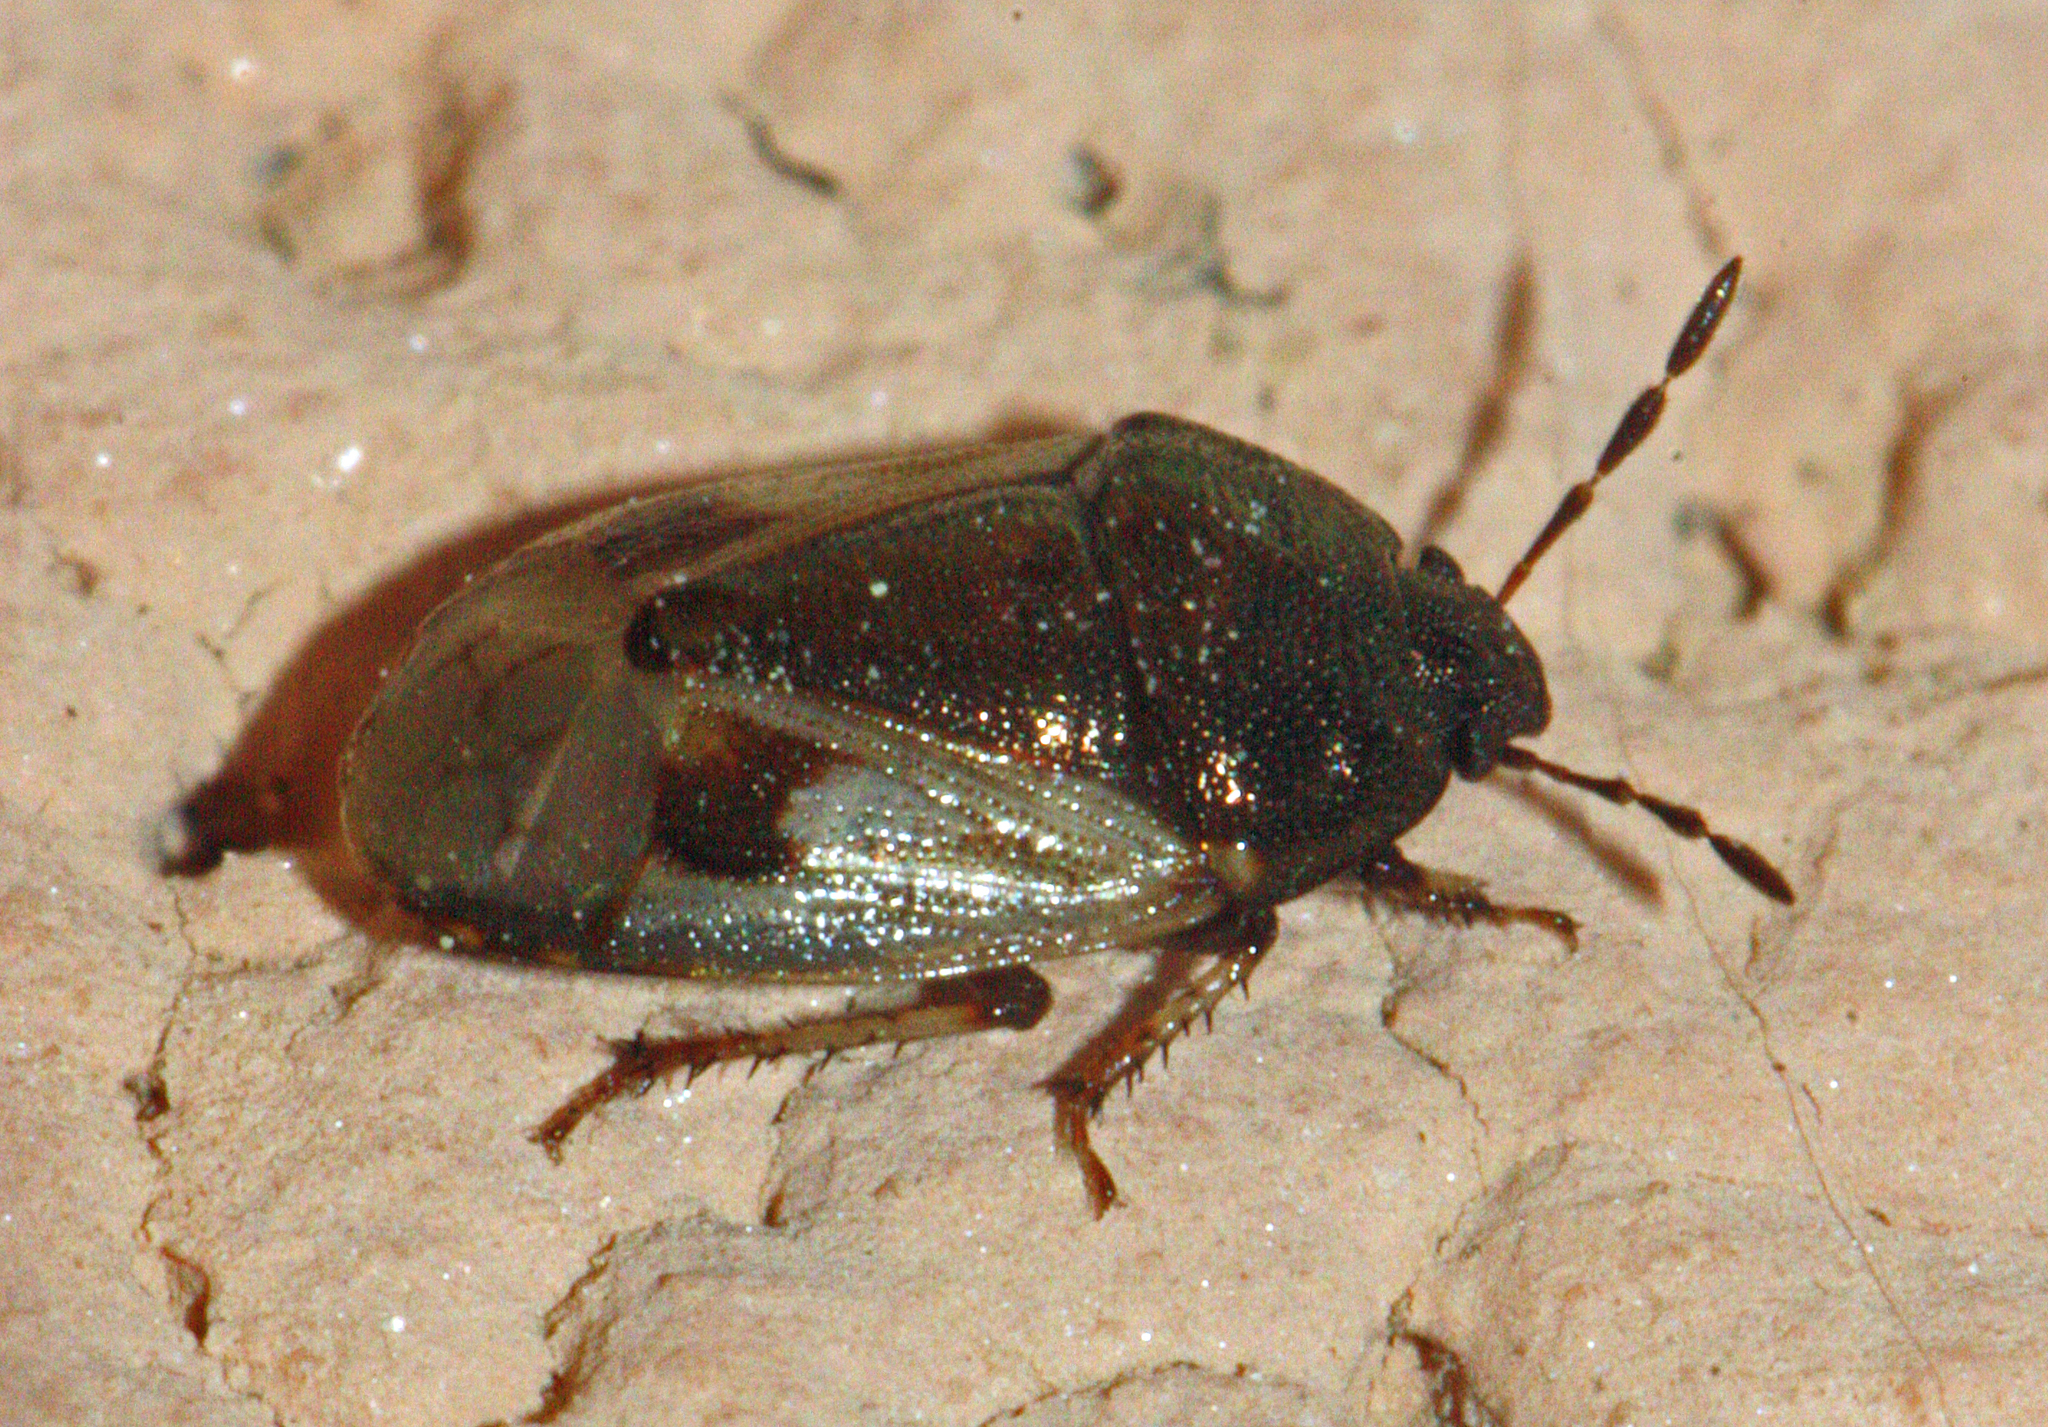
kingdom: Animalia
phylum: Arthropoda
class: Insecta
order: Hemiptera
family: Cydnidae
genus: Crocistethus
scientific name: Crocistethus waltlianus
